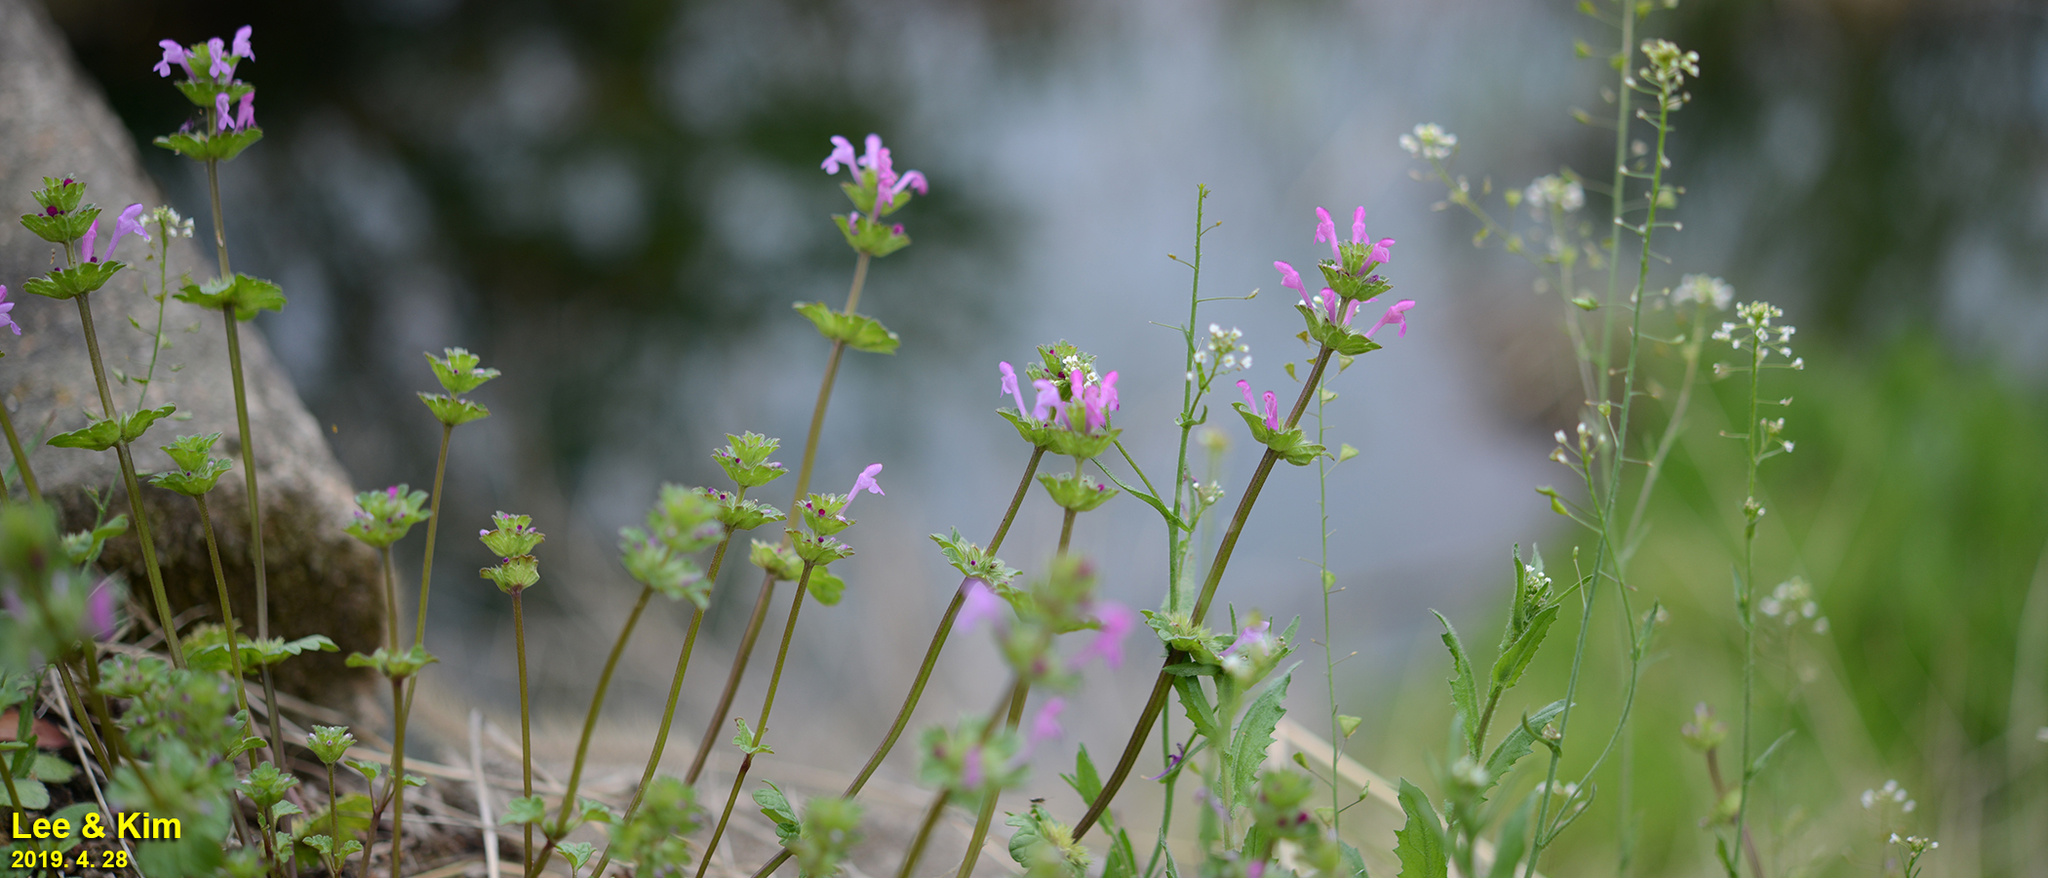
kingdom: Plantae
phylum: Tracheophyta
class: Magnoliopsida
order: Lamiales
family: Lamiaceae
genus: Lamium
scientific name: Lamium amplexicaule
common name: Henbit dead-nettle
